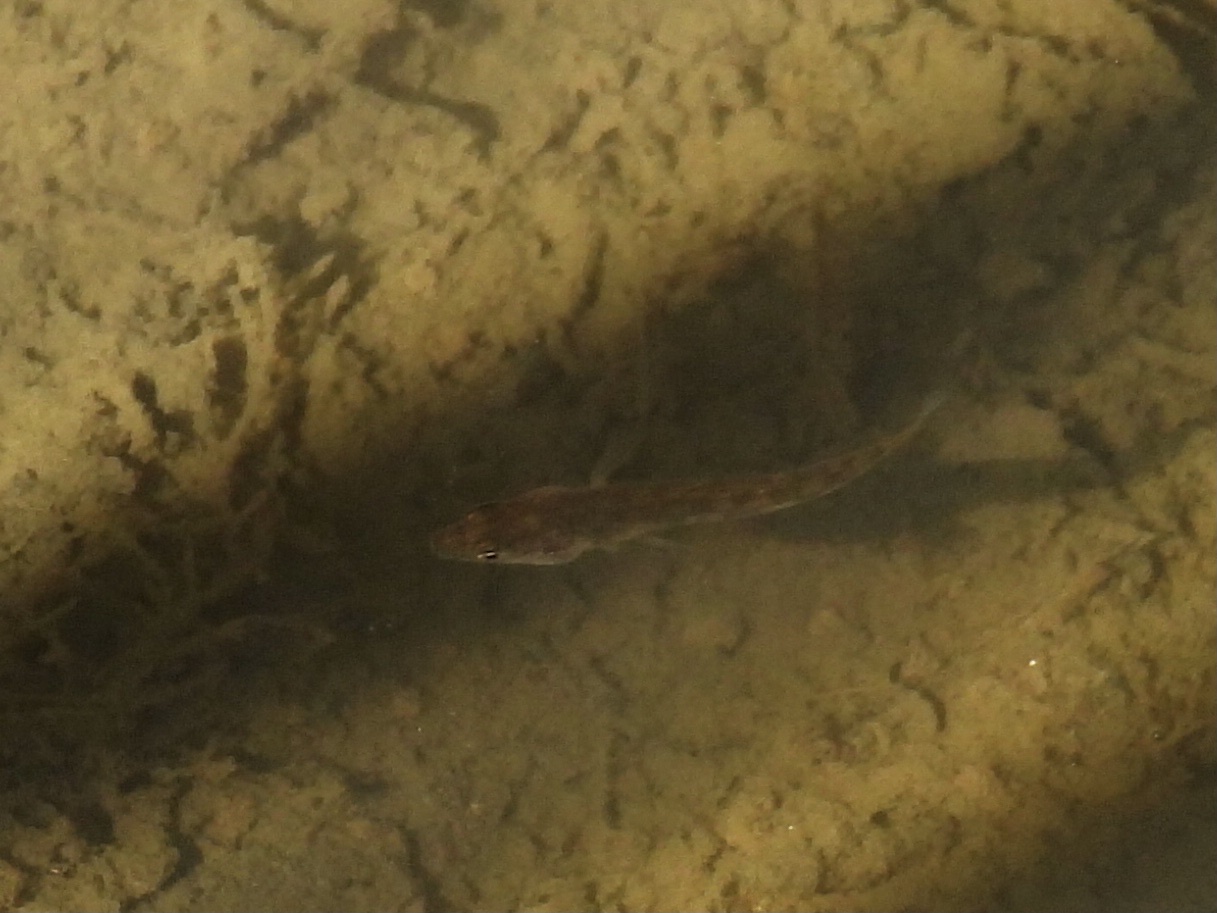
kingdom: Animalia
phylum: Chordata
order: Gasterosteiformes
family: Gasterosteidae
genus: Gasterosteus
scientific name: Gasterosteus aculeatus
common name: Three-spined stickleback
